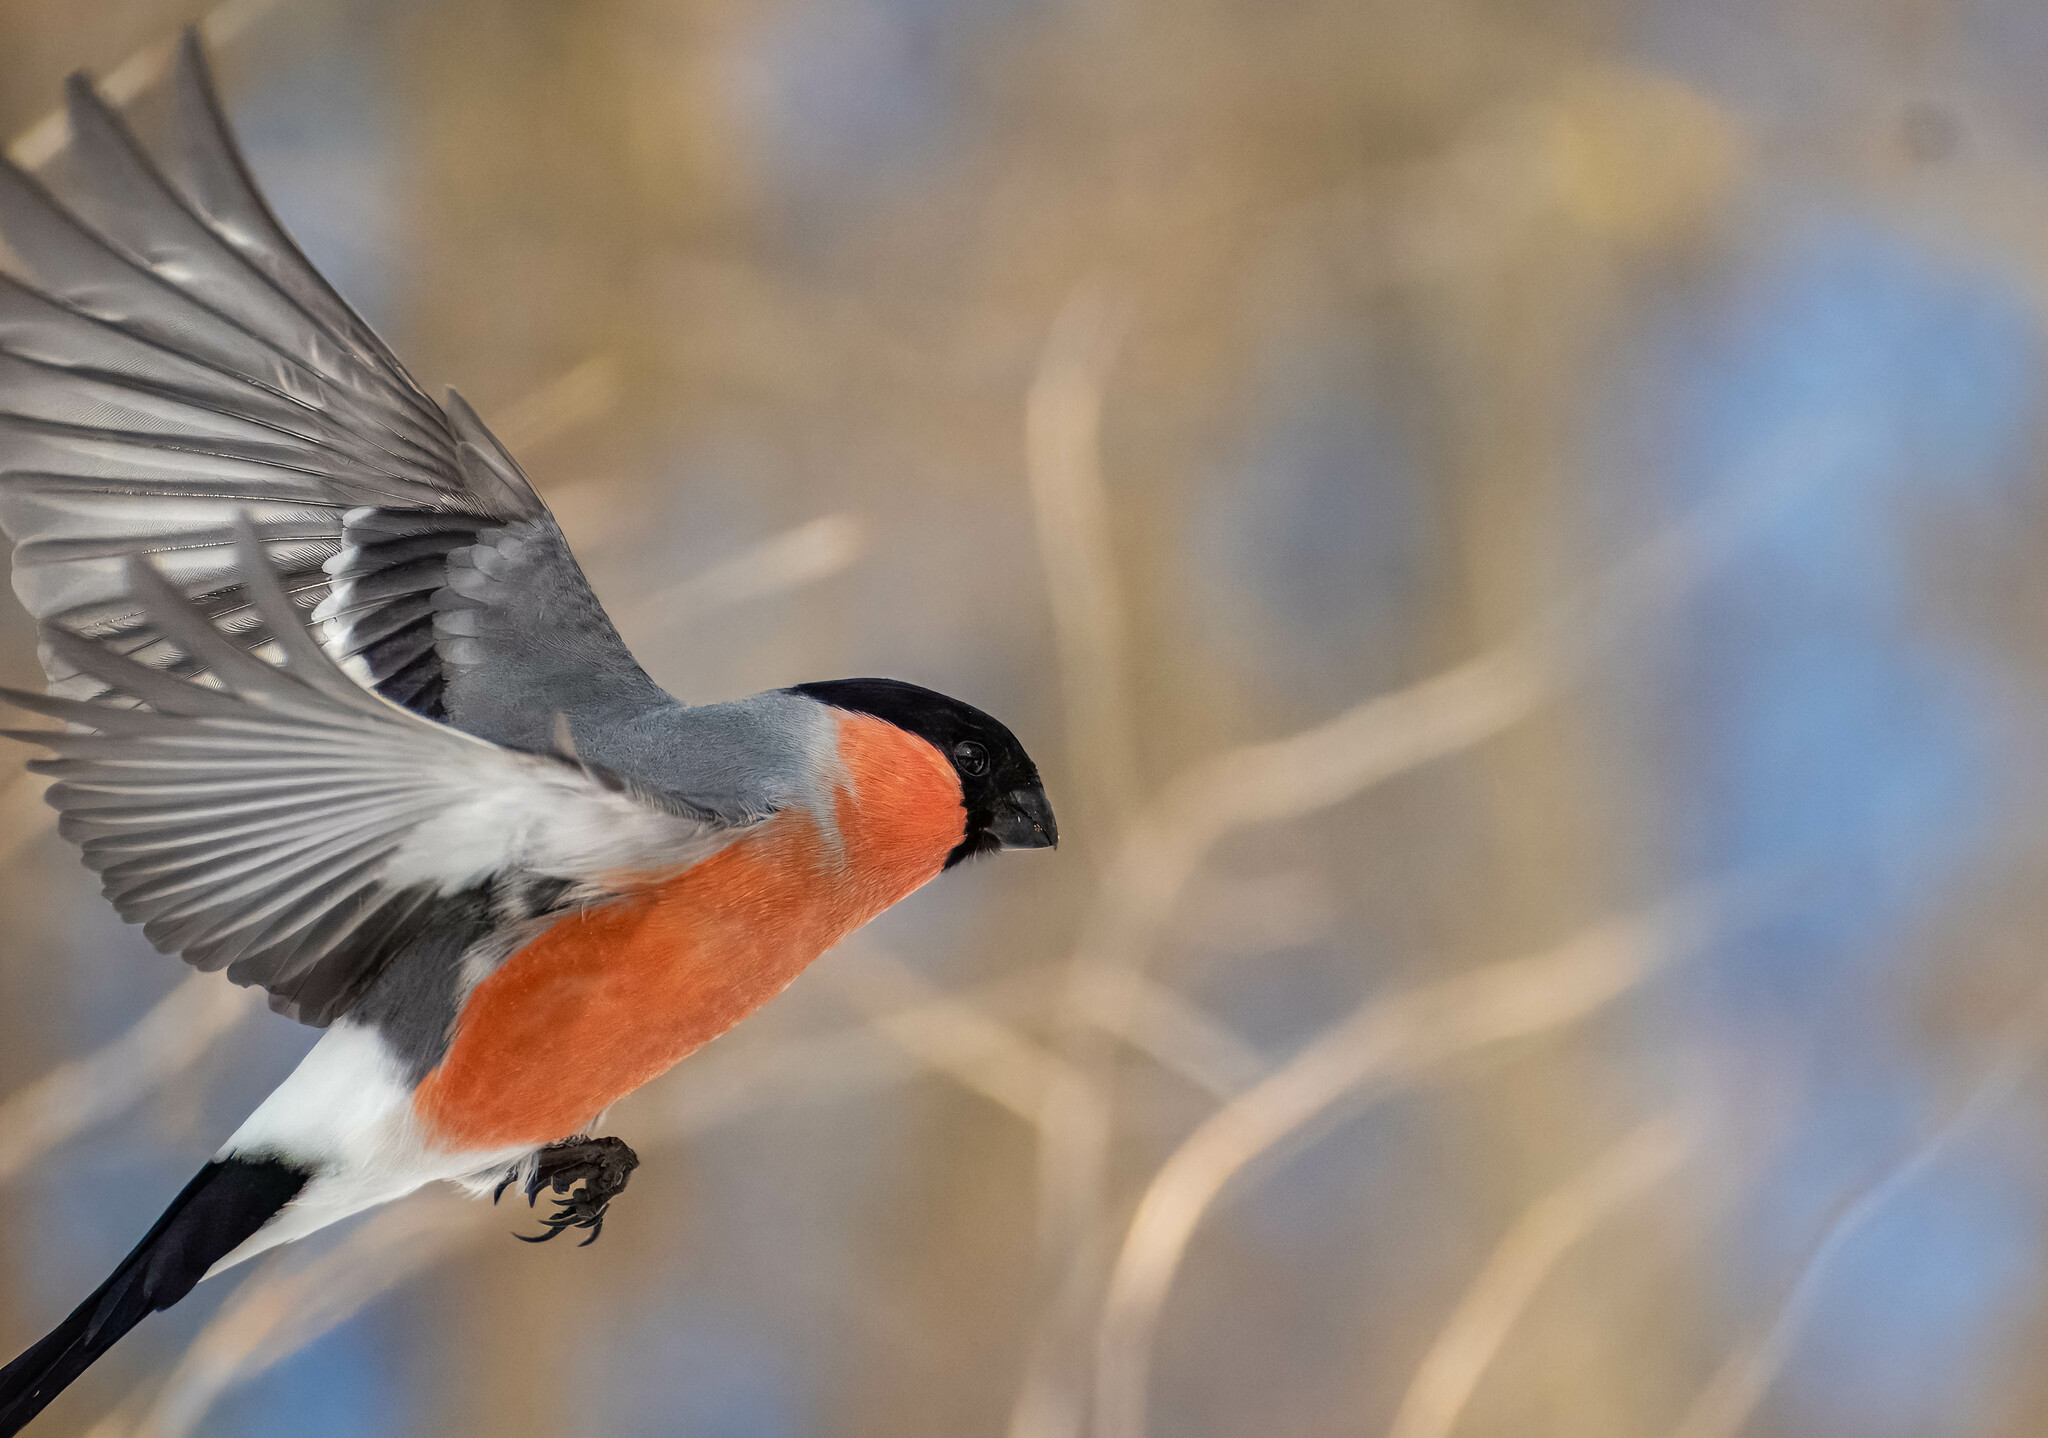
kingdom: Animalia
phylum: Chordata
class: Aves
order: Passeriformes
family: Fringillidae
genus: Pyrrhula
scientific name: Pyrrhula pyrrhula
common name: Eurasian bullfinch
